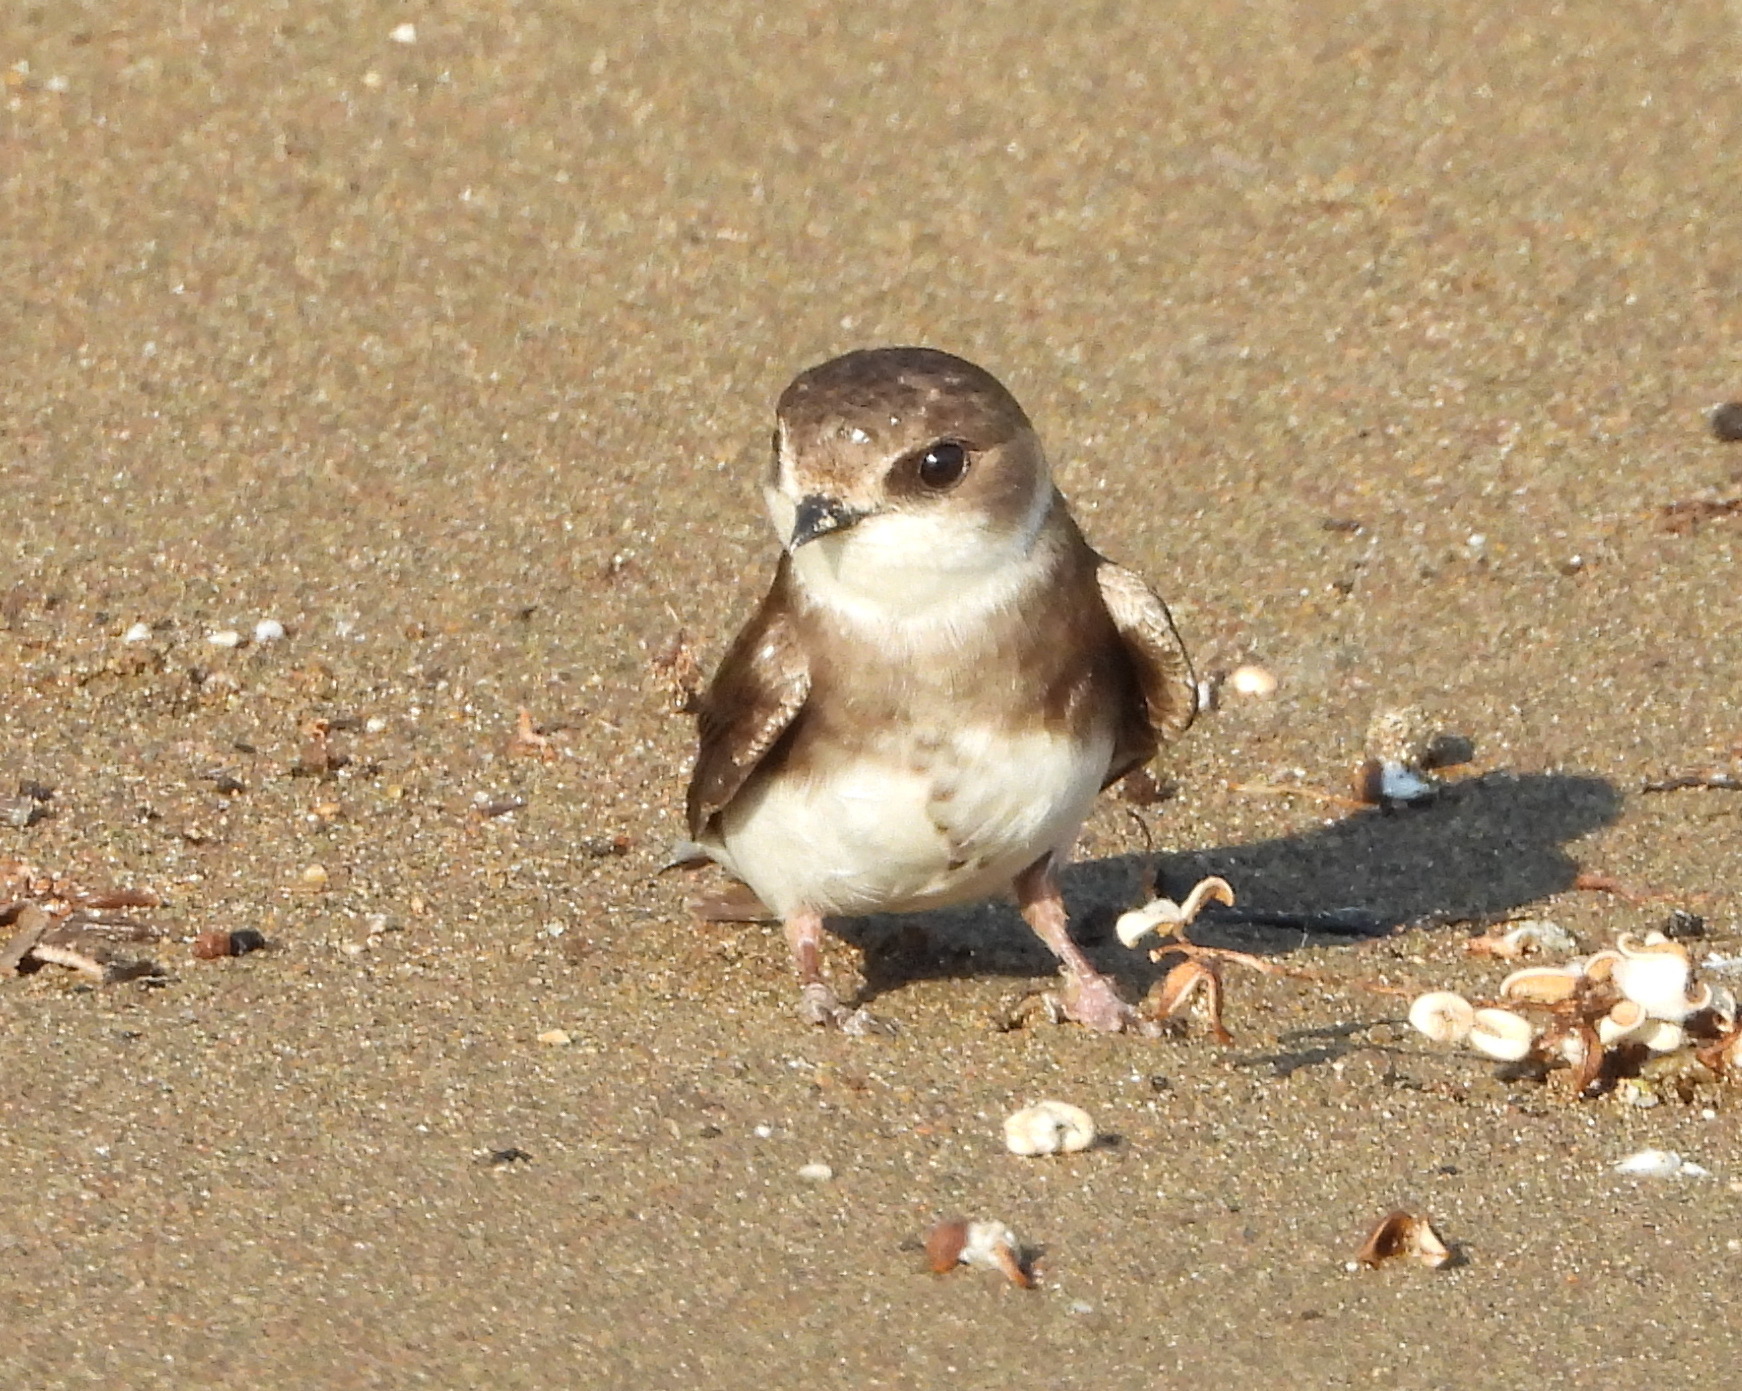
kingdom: Animalia
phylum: Chordata
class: Aves
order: Passeriformes
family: Hirundinidae
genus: Riparia
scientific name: Riparia riparia
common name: Sand martin
